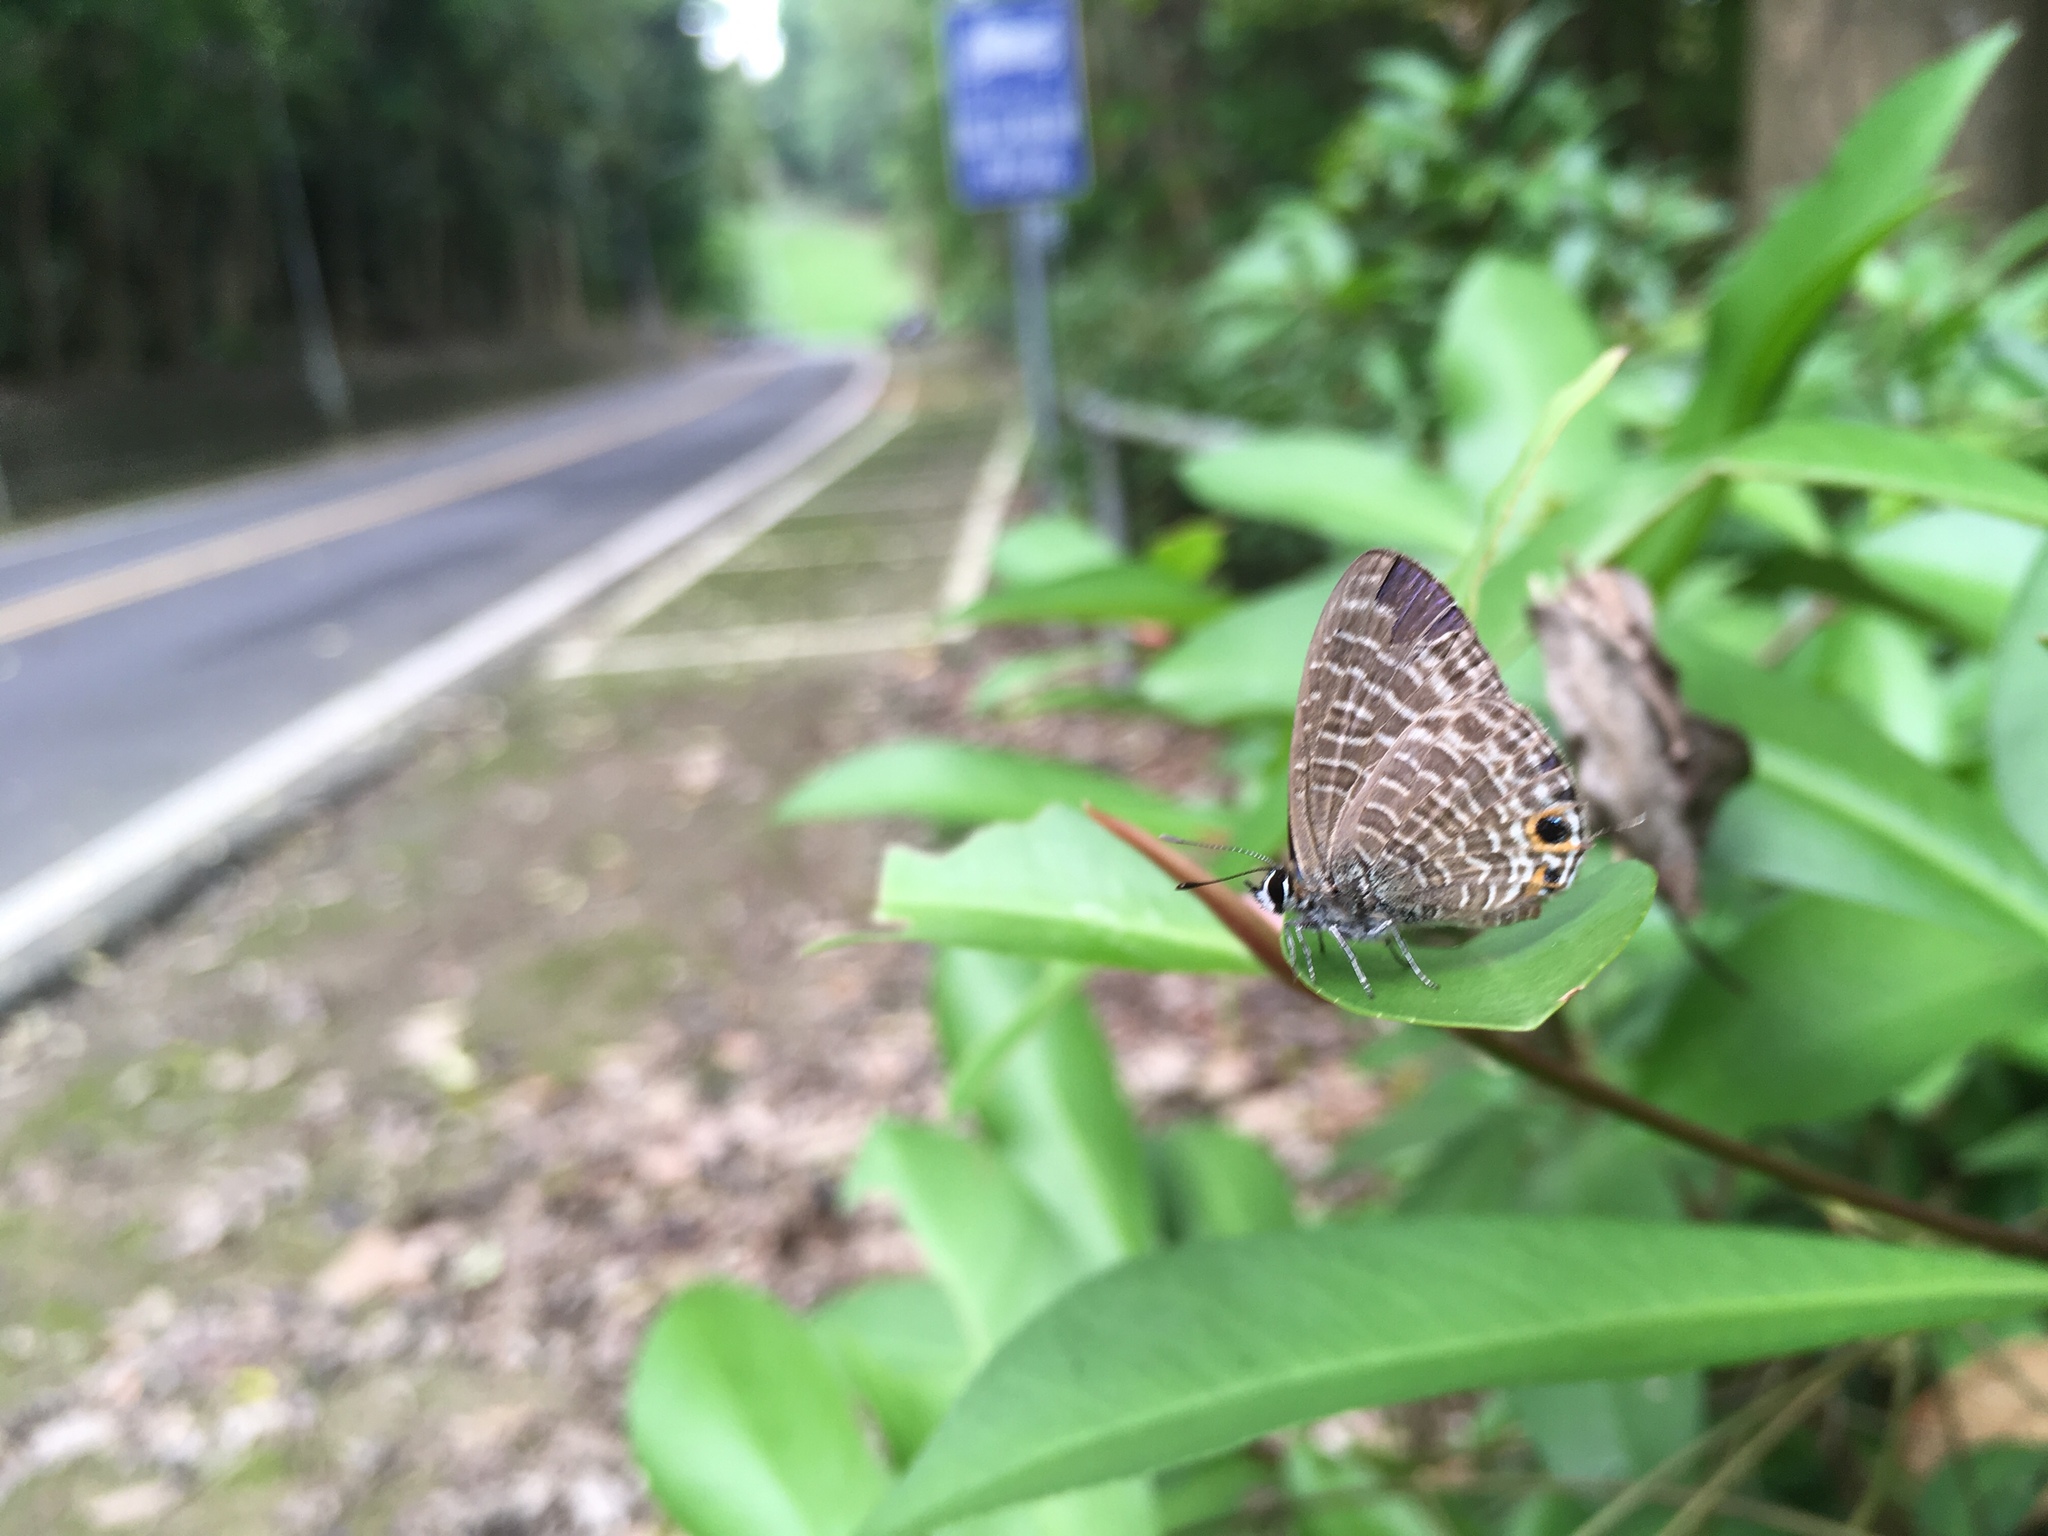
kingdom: Animalia
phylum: Arthropoda
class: Insecta
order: Lepidoptera
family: Lycaenidae
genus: Nacaduba
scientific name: Nacaduba kurava
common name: Transparent 6-line blue
